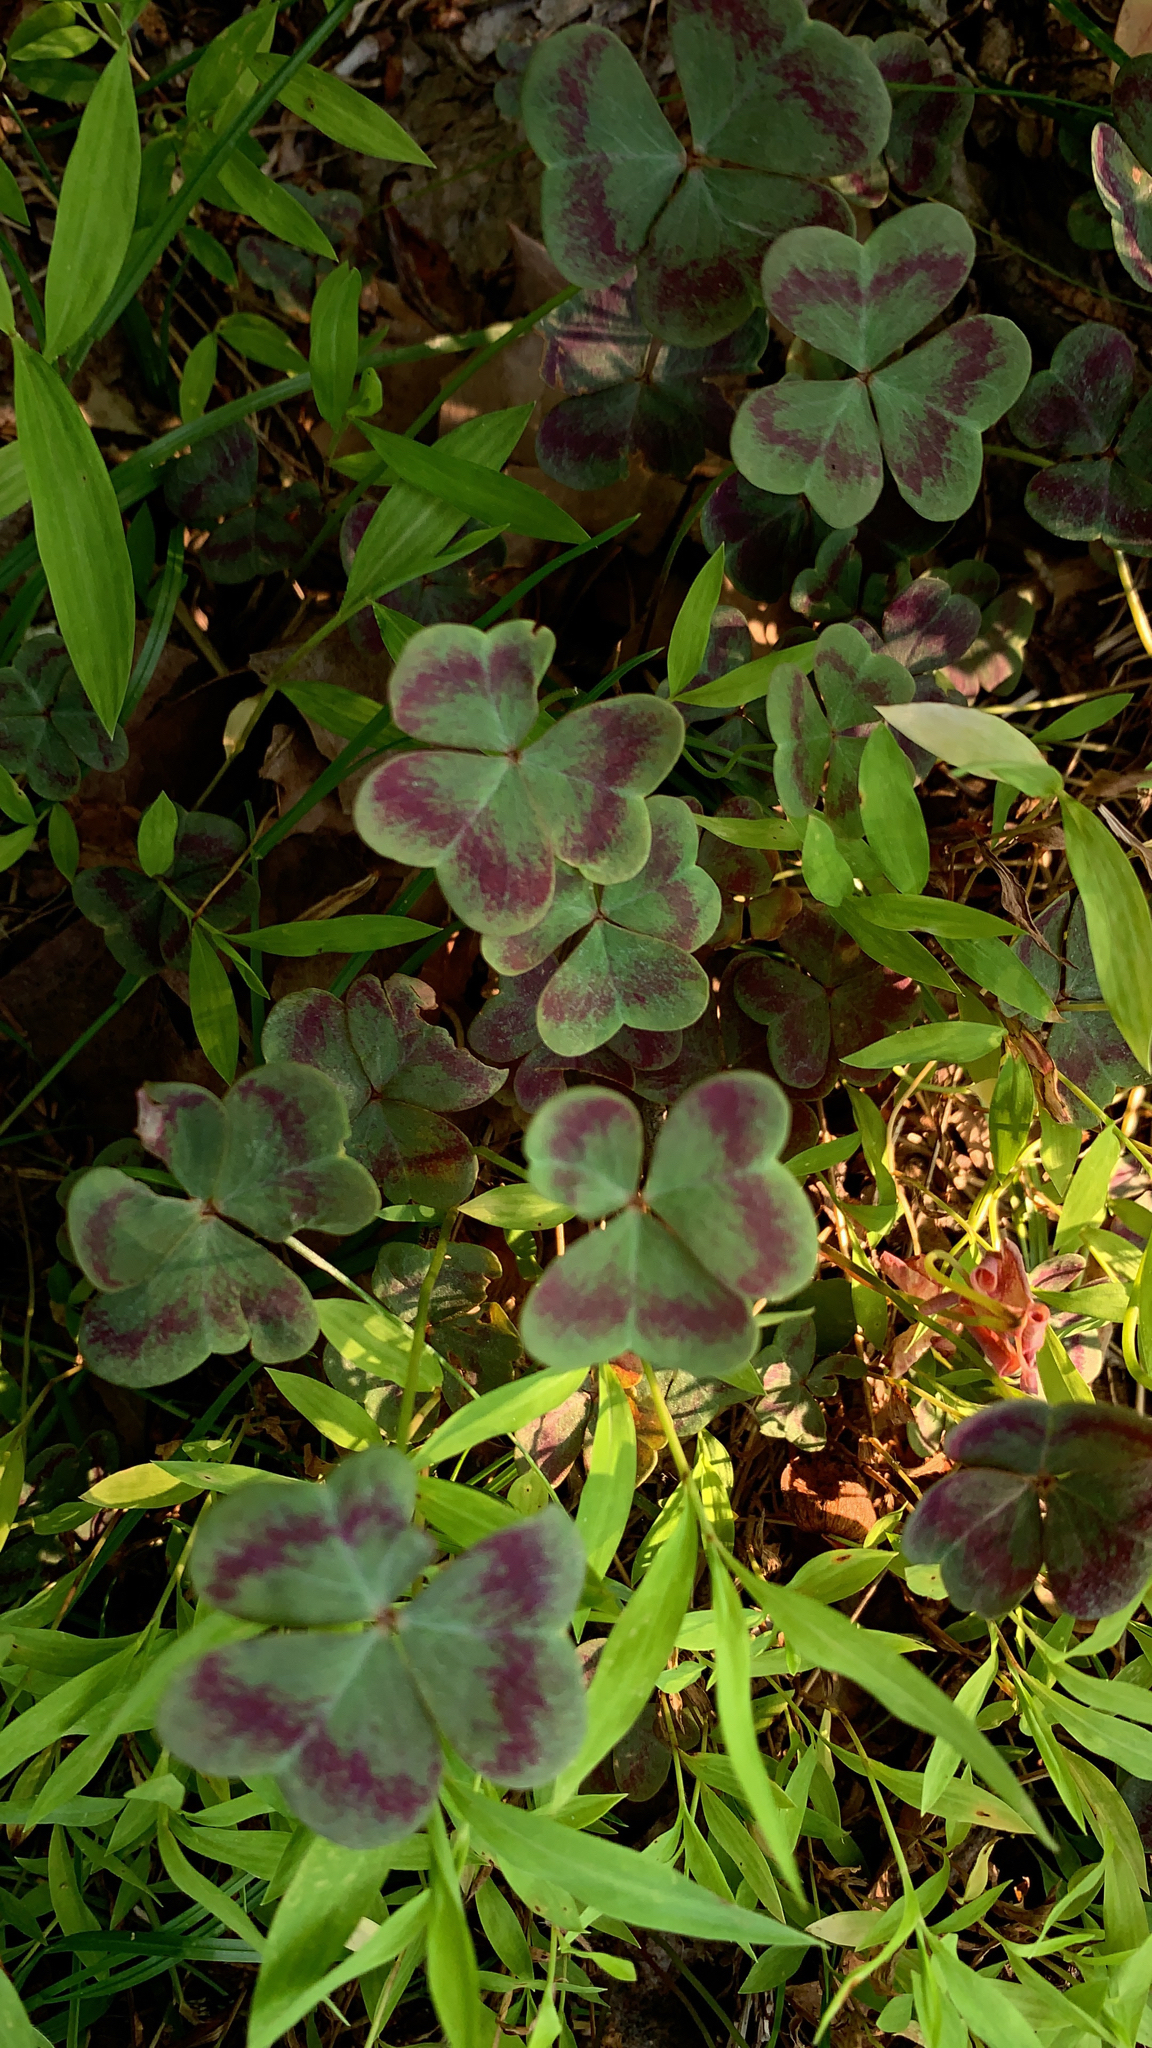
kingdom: Plantae
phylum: Tracheophyta
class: Magnoliopsida
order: Oxalidales
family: Oxalidaceae
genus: Oxalis
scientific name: Oxalis violacea
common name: Violet wood-sorrel
